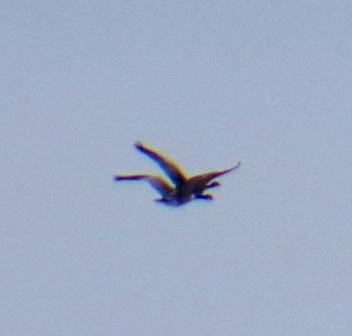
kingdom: Animalia
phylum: Chordata
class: Aves
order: Anseriformes
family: Anatidae
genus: Branta
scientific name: Branta canadensis
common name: Canada goose
